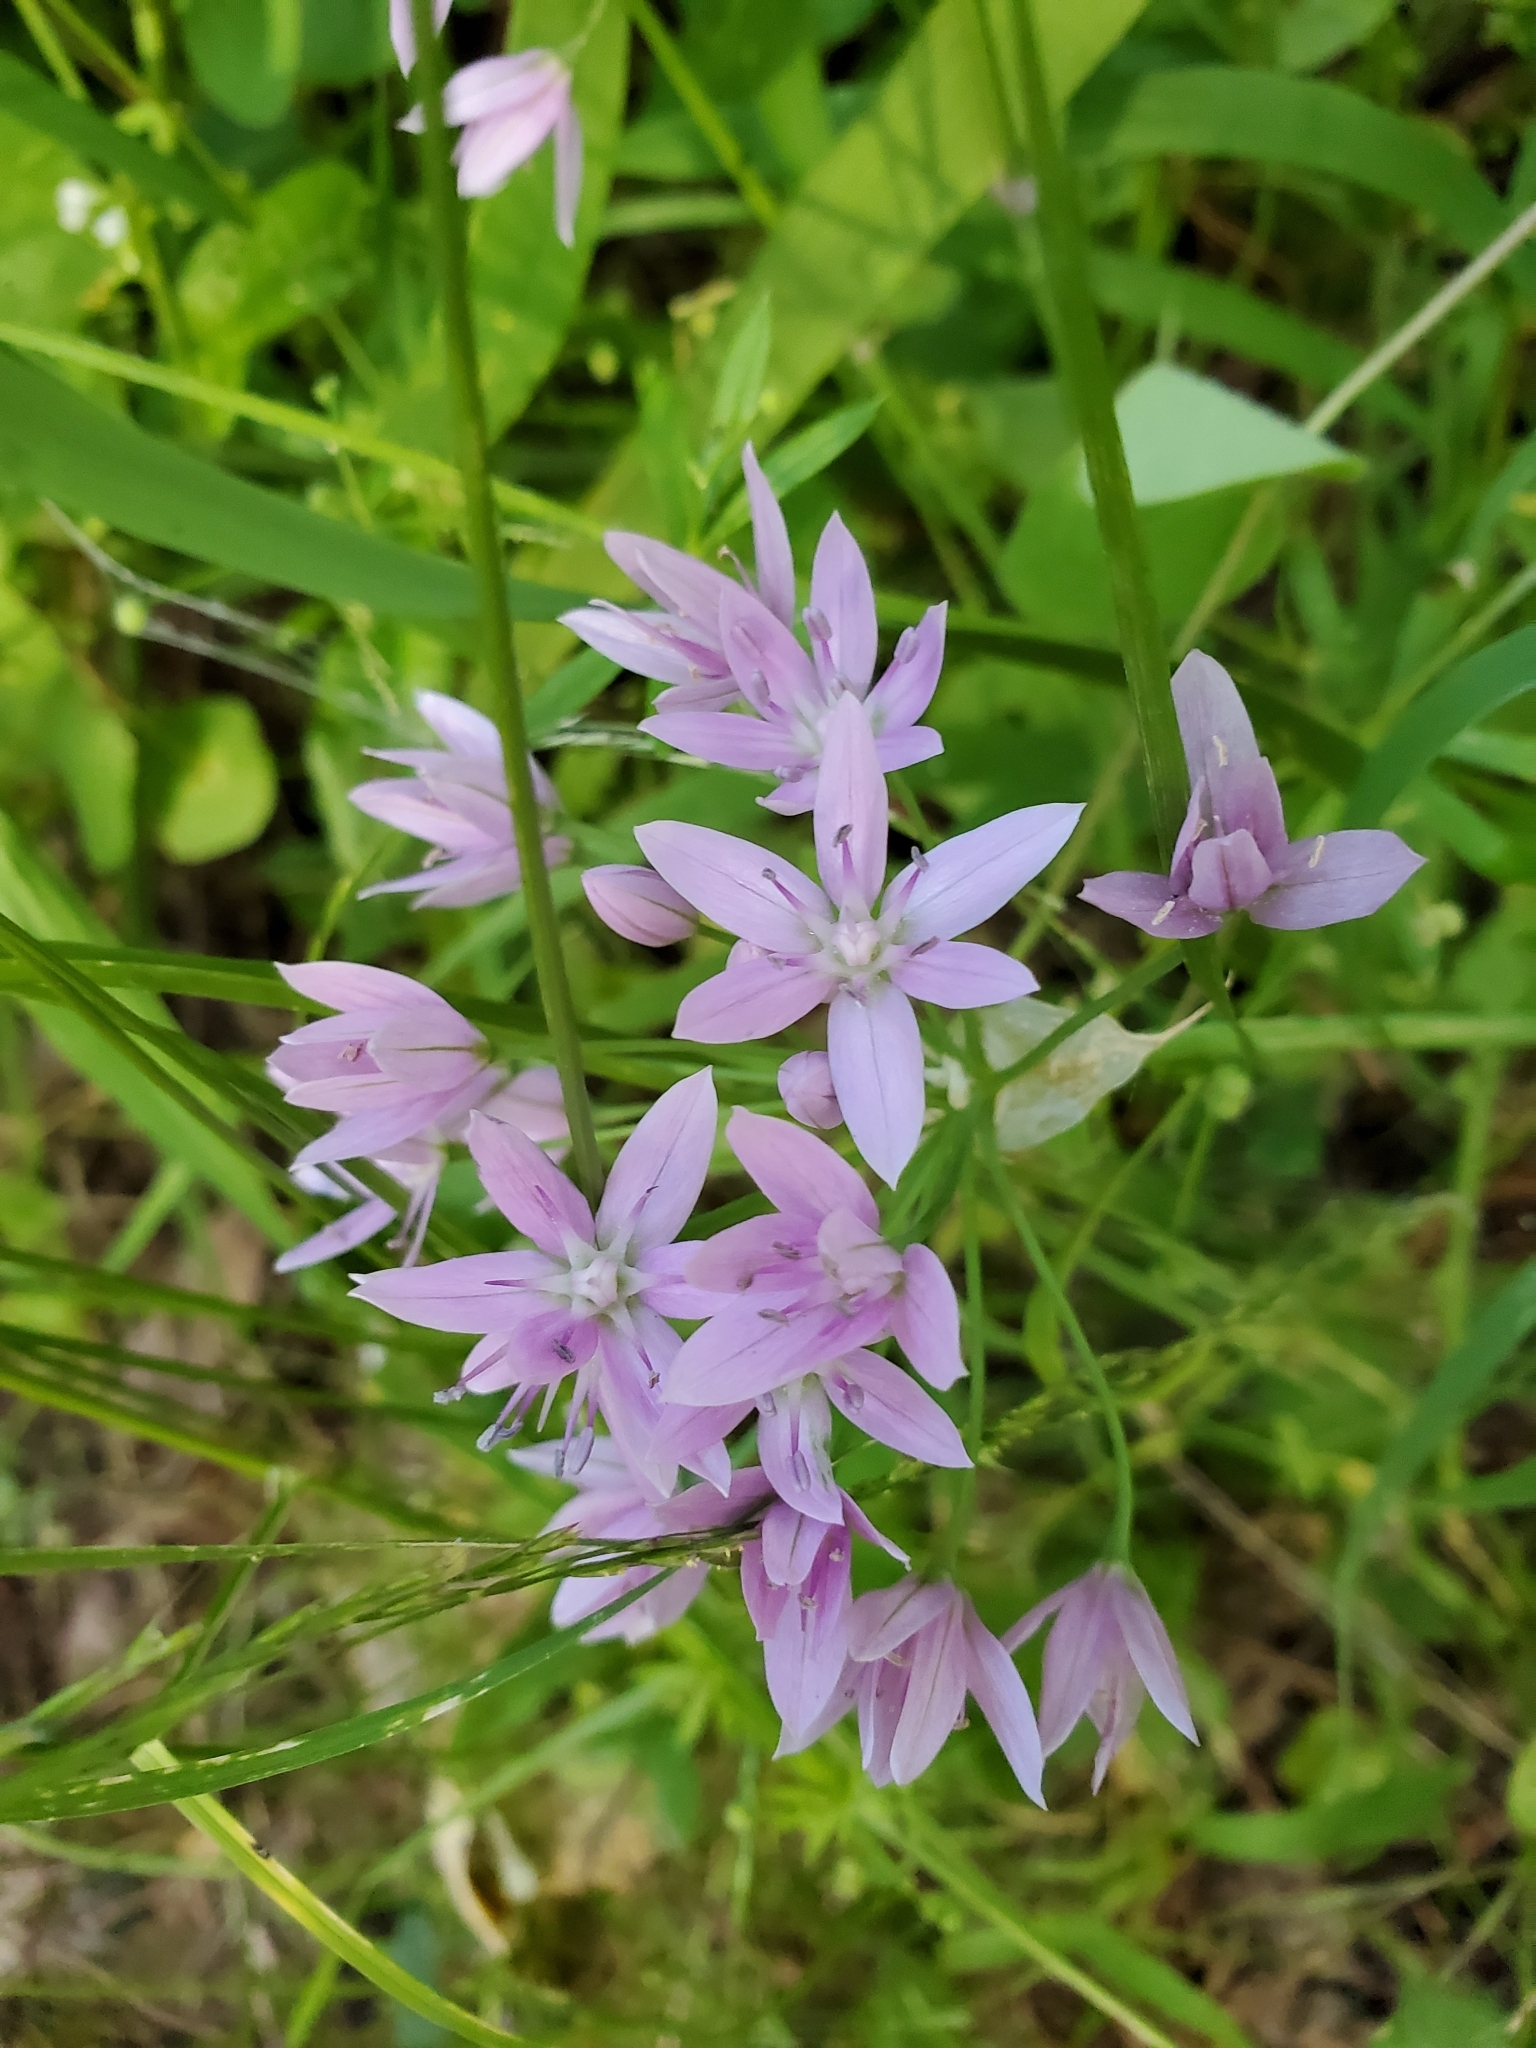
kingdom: Plantae
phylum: Tracheophyta
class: Liliopsida
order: Asparagales
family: Amaryllidaceae
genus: Allium
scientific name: Allium unifolium
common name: American garlic
